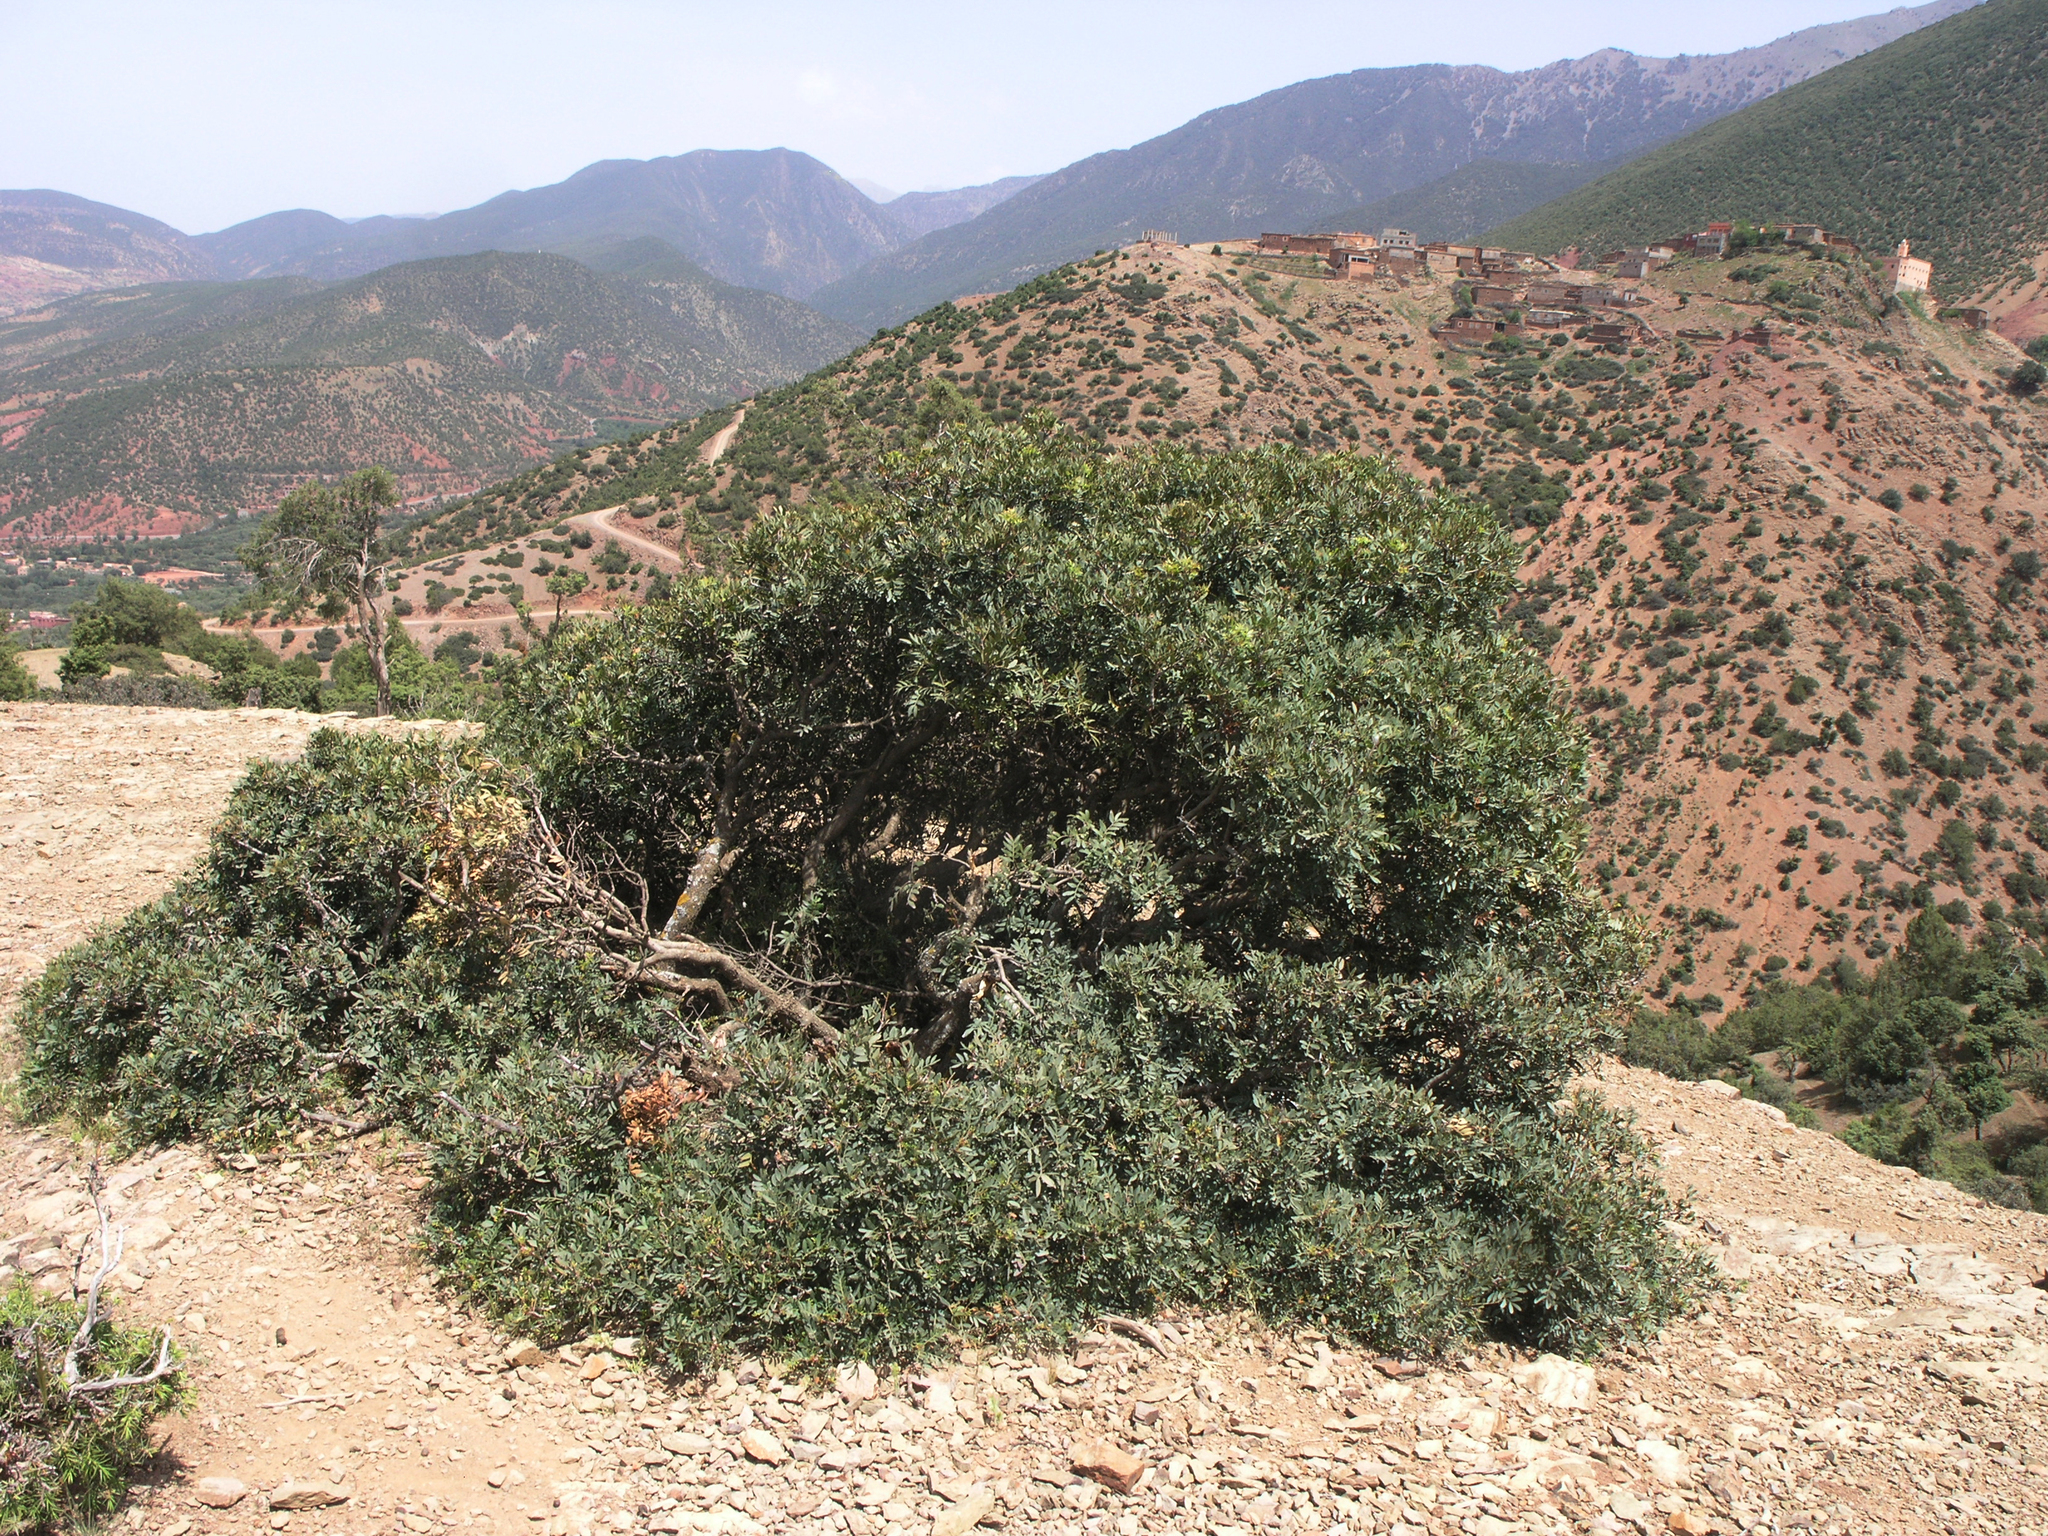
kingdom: Plantae
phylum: Tracheophyta
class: Magnoliopsida
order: Sapindales
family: Anacardiaceae
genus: Pistacia
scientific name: Pistacia lentiscus
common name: Lentisk
